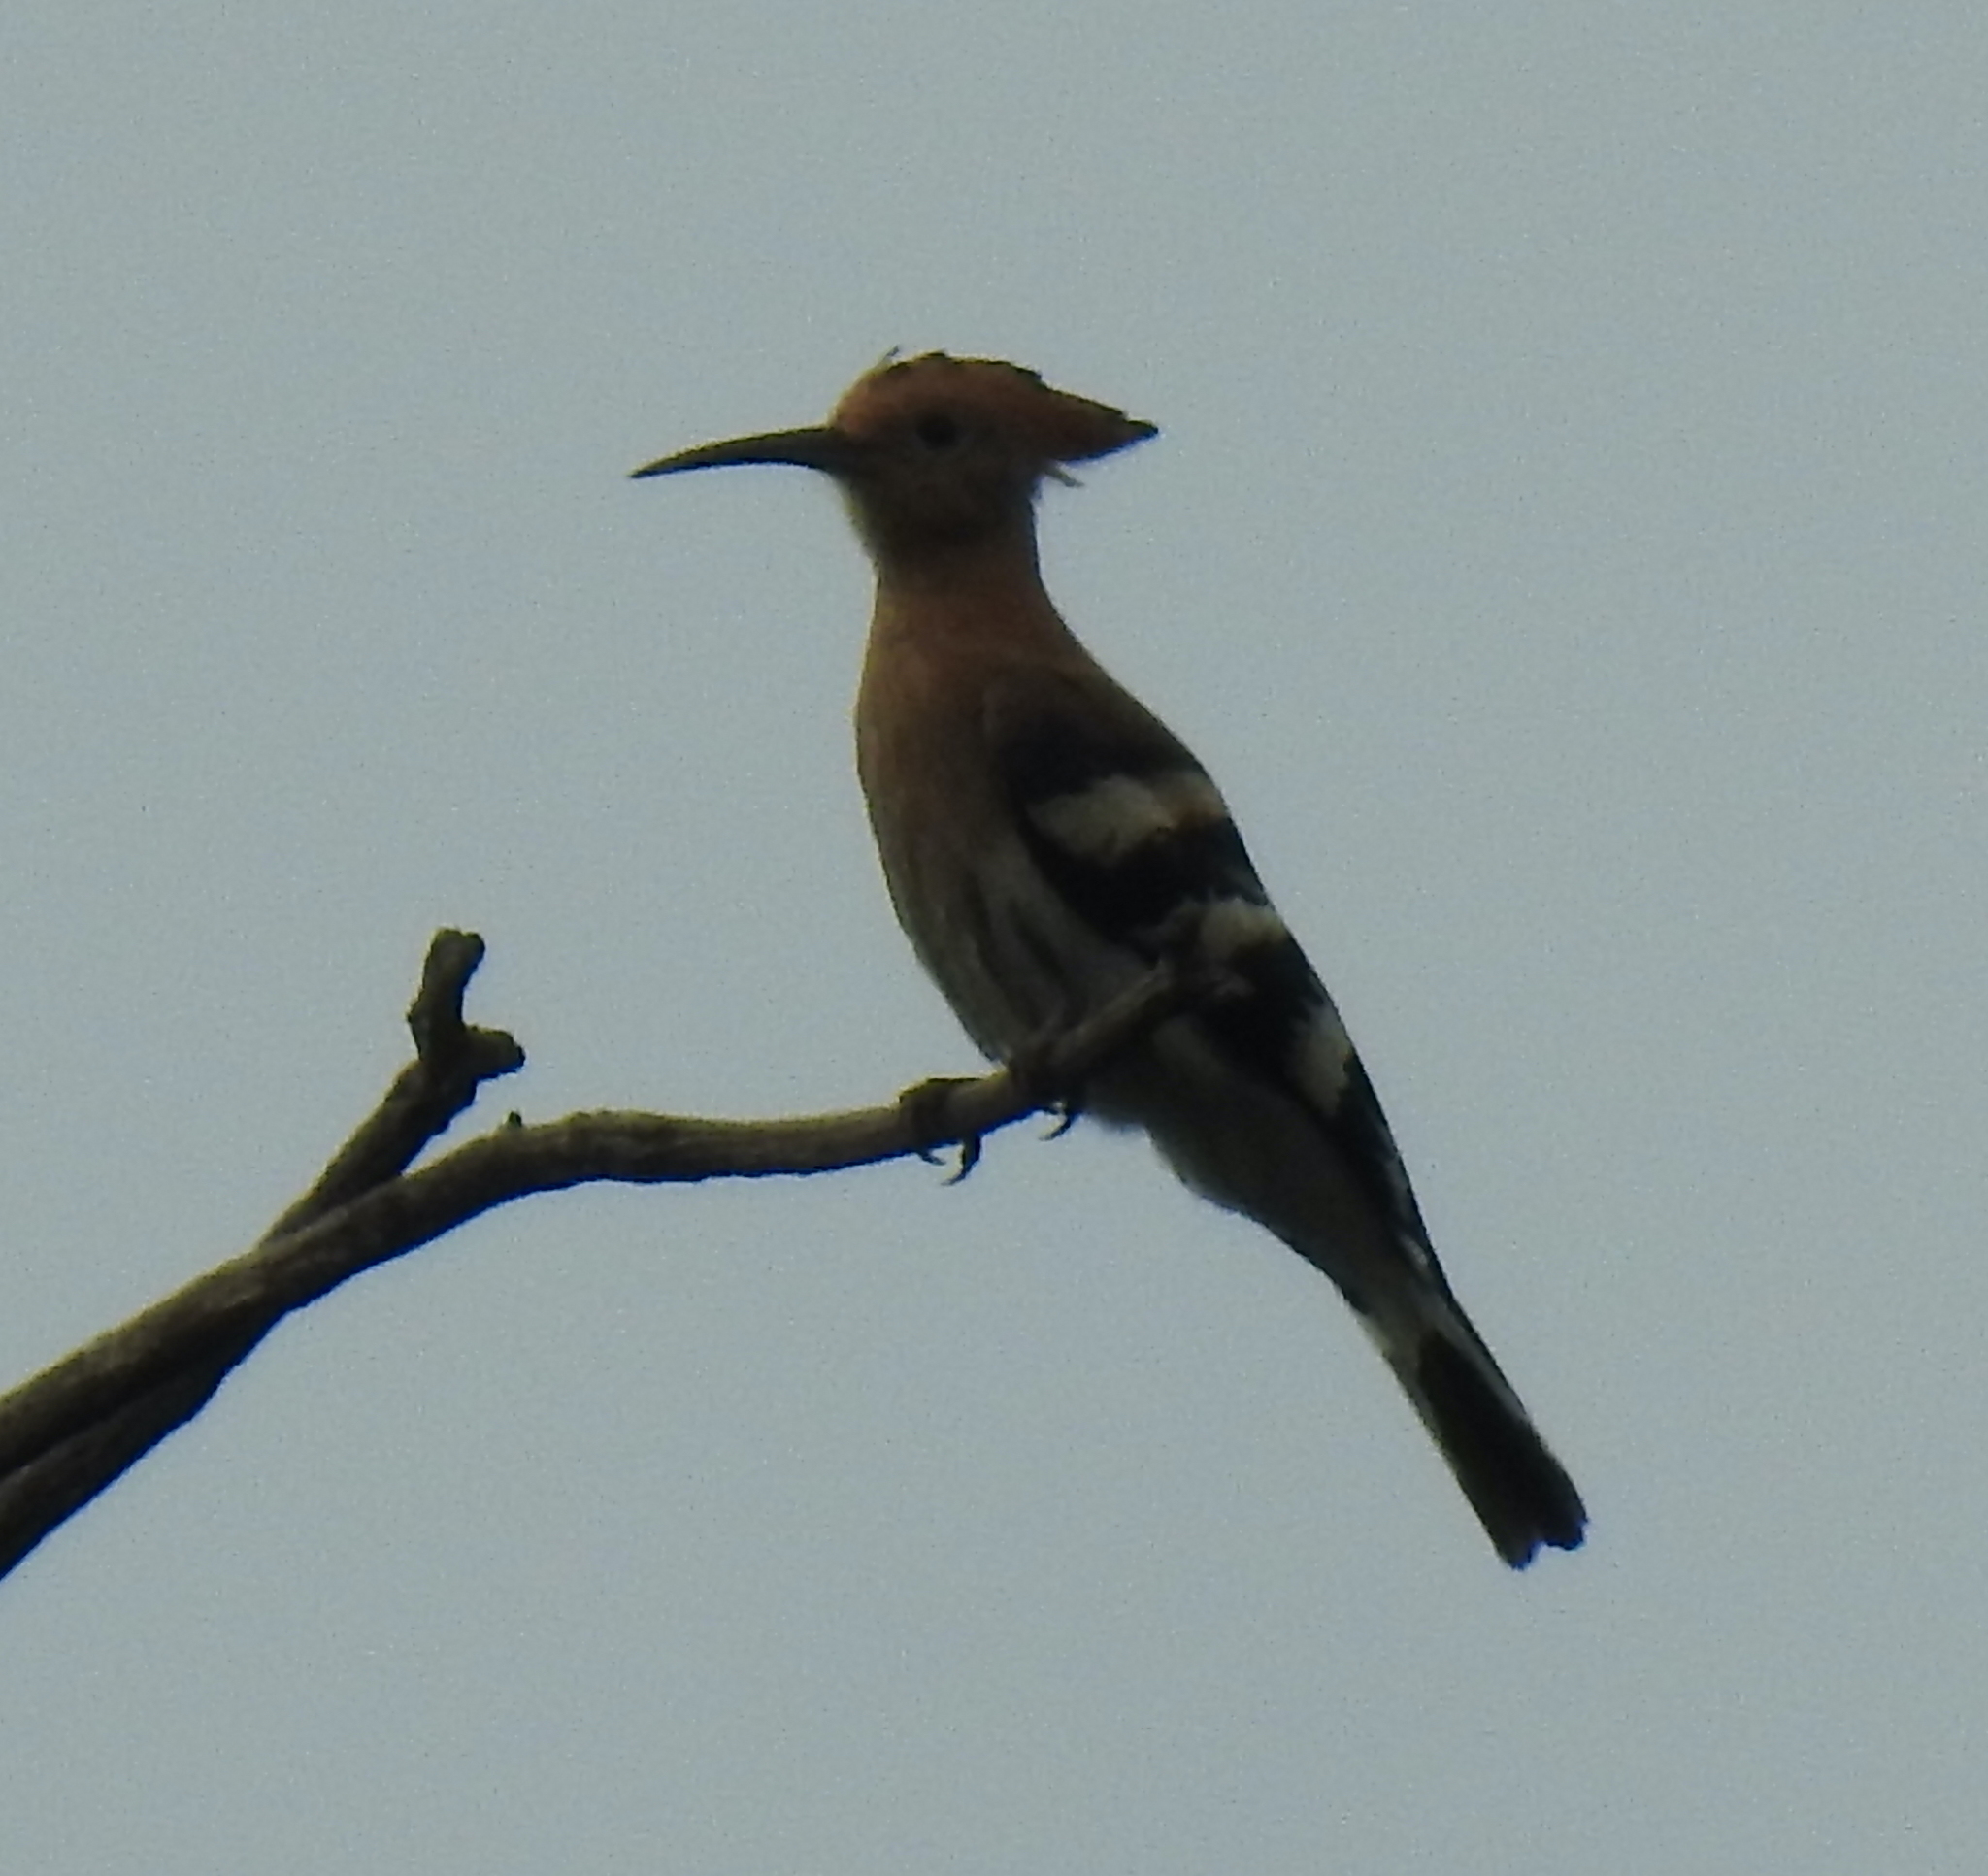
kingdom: Animalia
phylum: Chordata
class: Aves
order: Bucerotiformes
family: Upupidae
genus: Upupa
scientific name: Upupa africana
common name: African hoopoe
